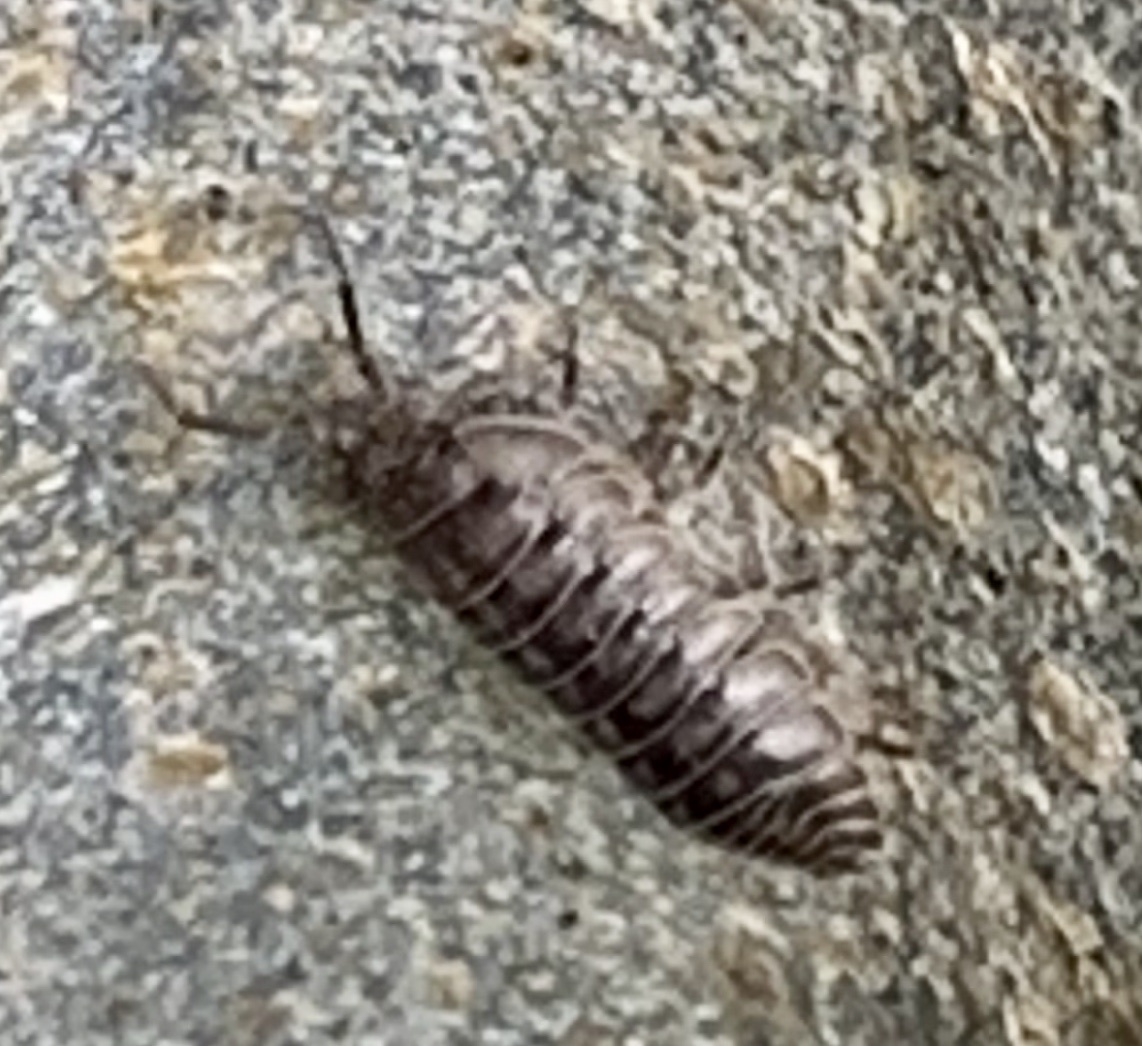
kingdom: Animalia
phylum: Arthropoda
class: Malacostraca
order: Isopoda
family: Armadillidiidae
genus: Armadillidium
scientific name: Armadillidium nasatum
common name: Isopod
